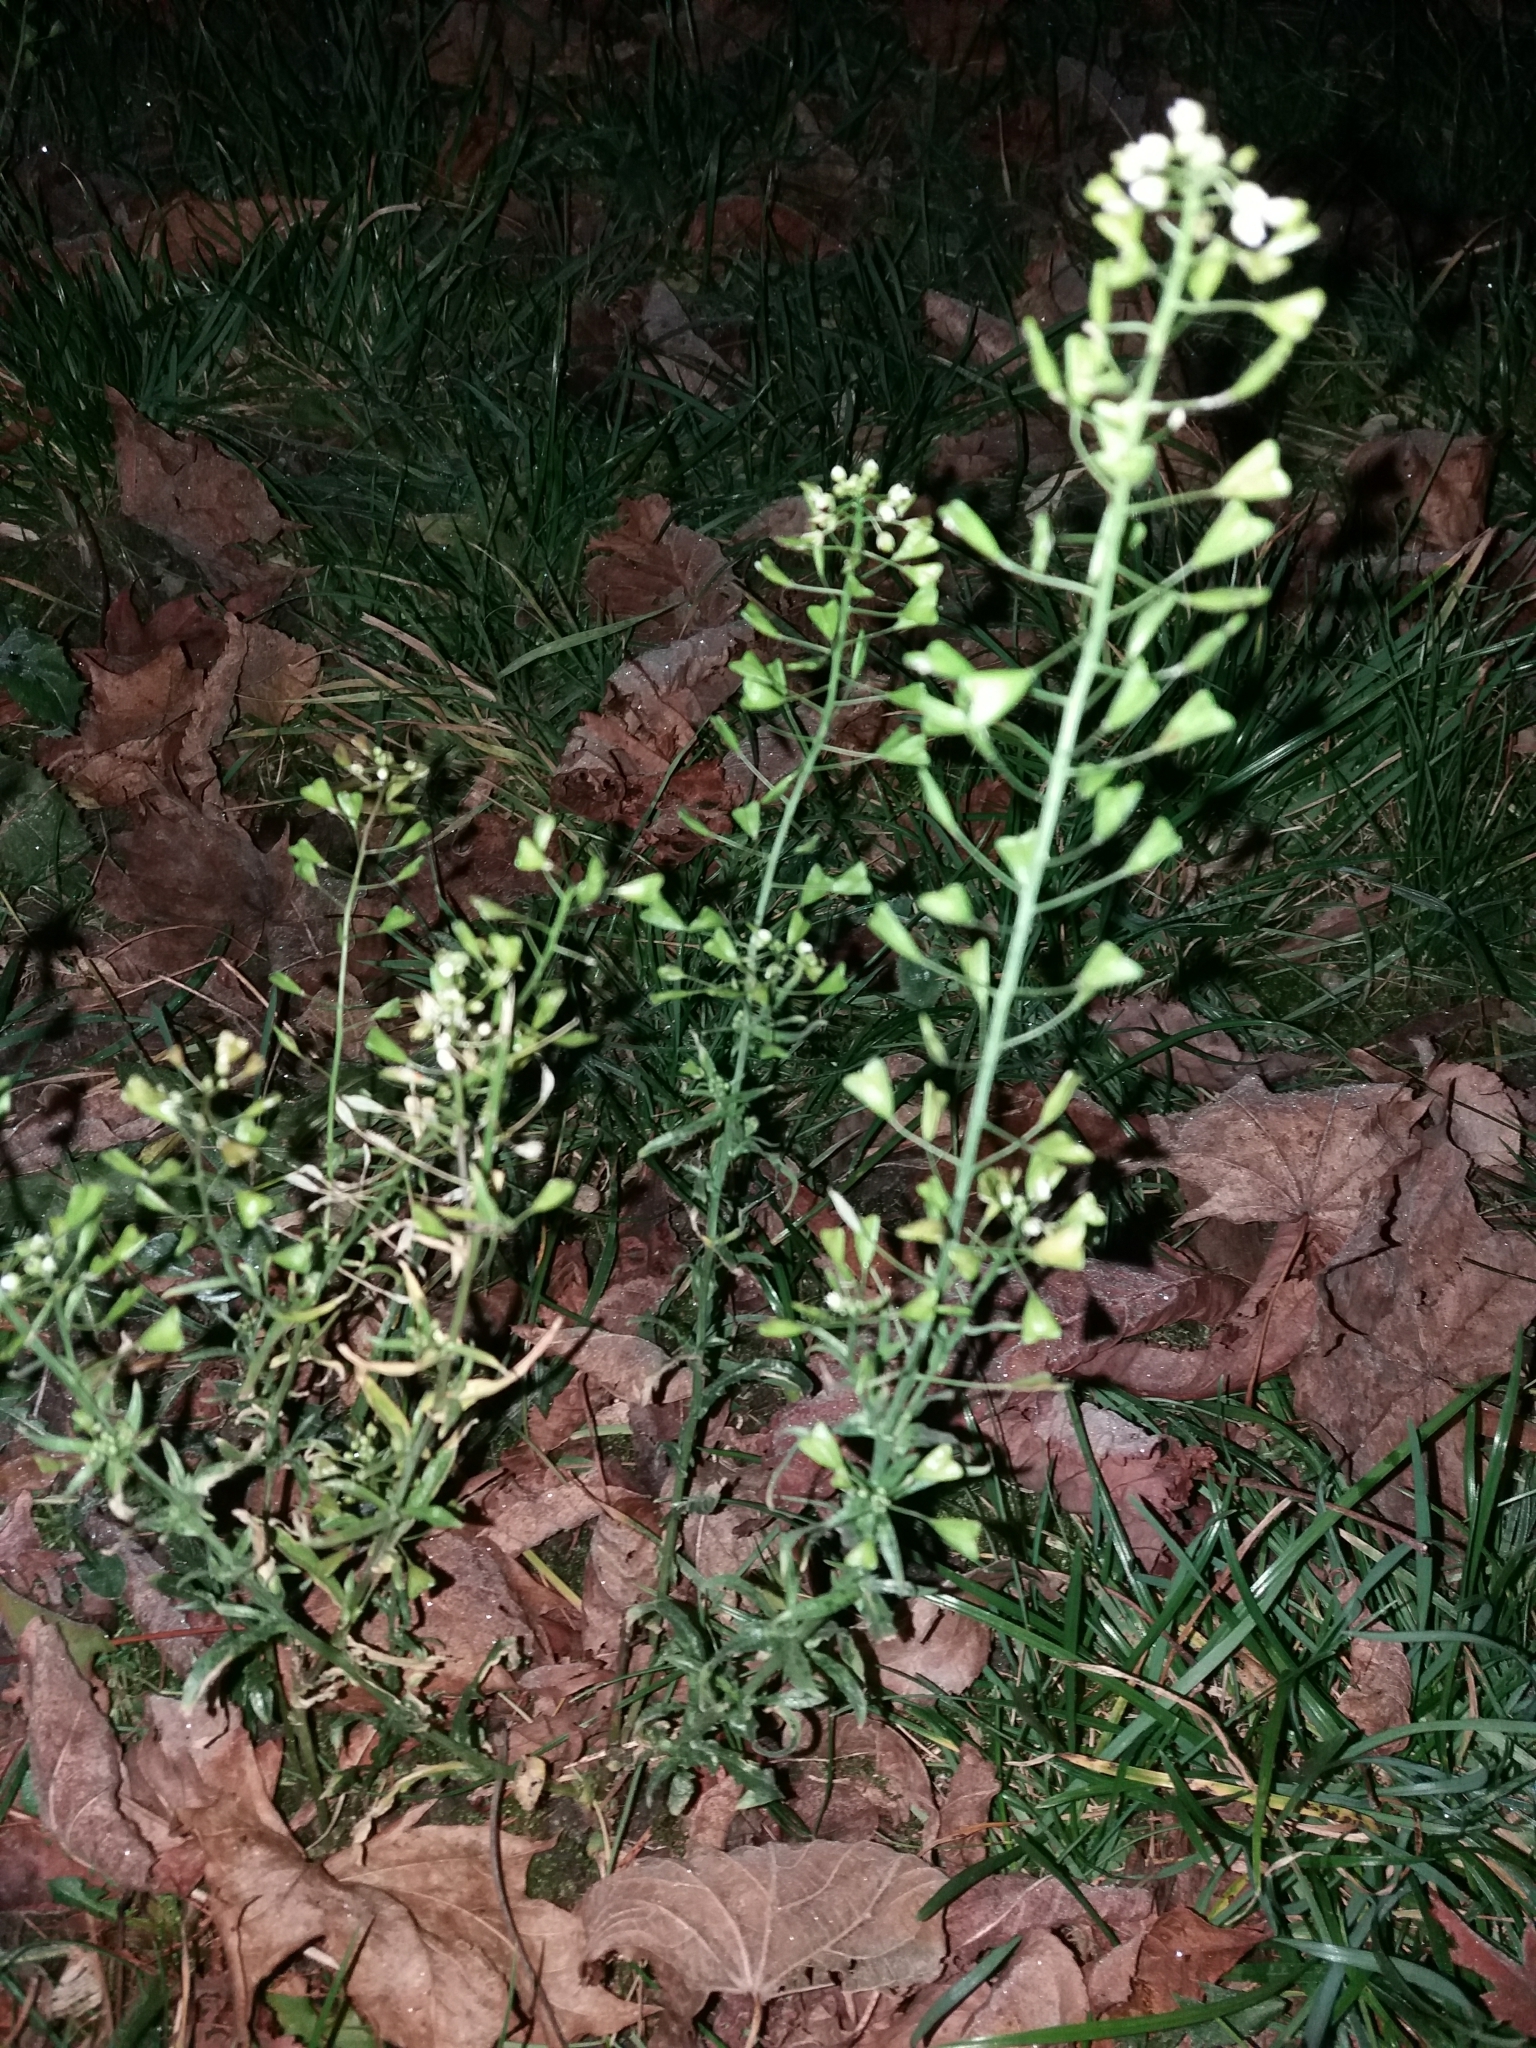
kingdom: Plantae
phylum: Tracheophyta
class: Magnoliopsida
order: Brassicales
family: Brassicaceae
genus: Capsella
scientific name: Capsella bursa-pastoris
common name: Shepherd's purse
